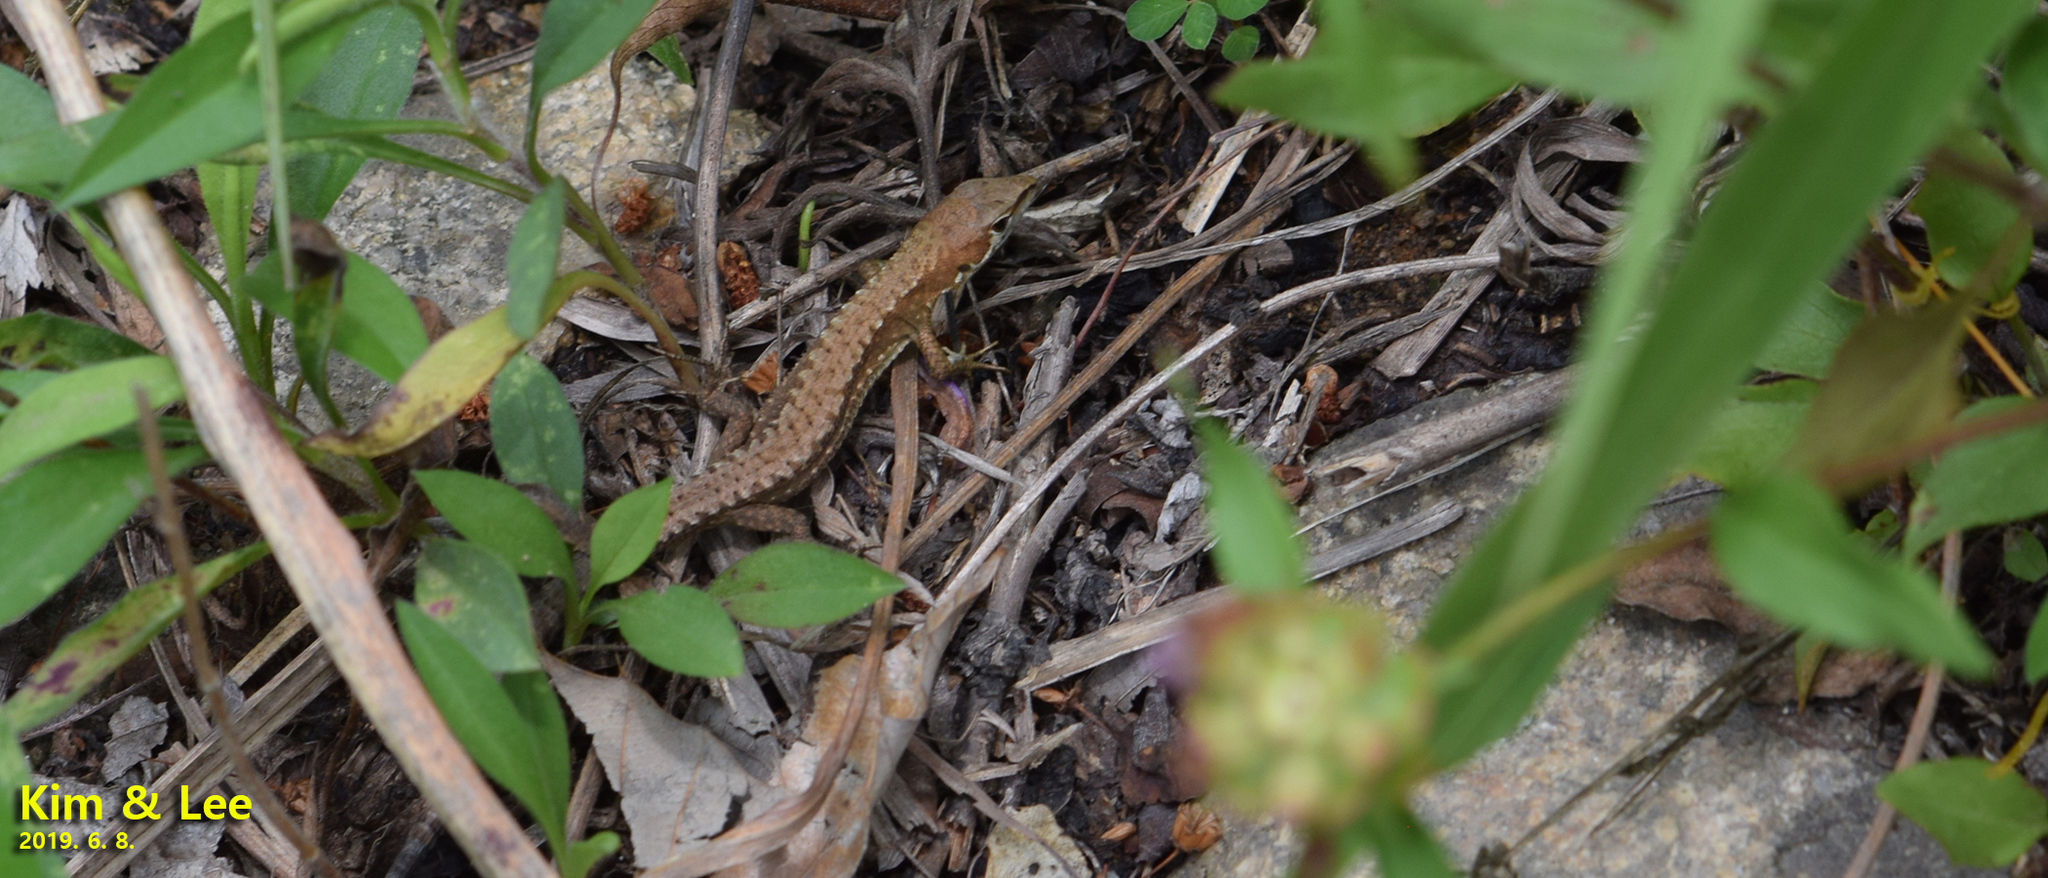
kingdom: Animalia
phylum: Chordata
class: Squamata
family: Lacertidae
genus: Takydromus
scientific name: Takydromus amurensis
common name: Amur grass lizard
